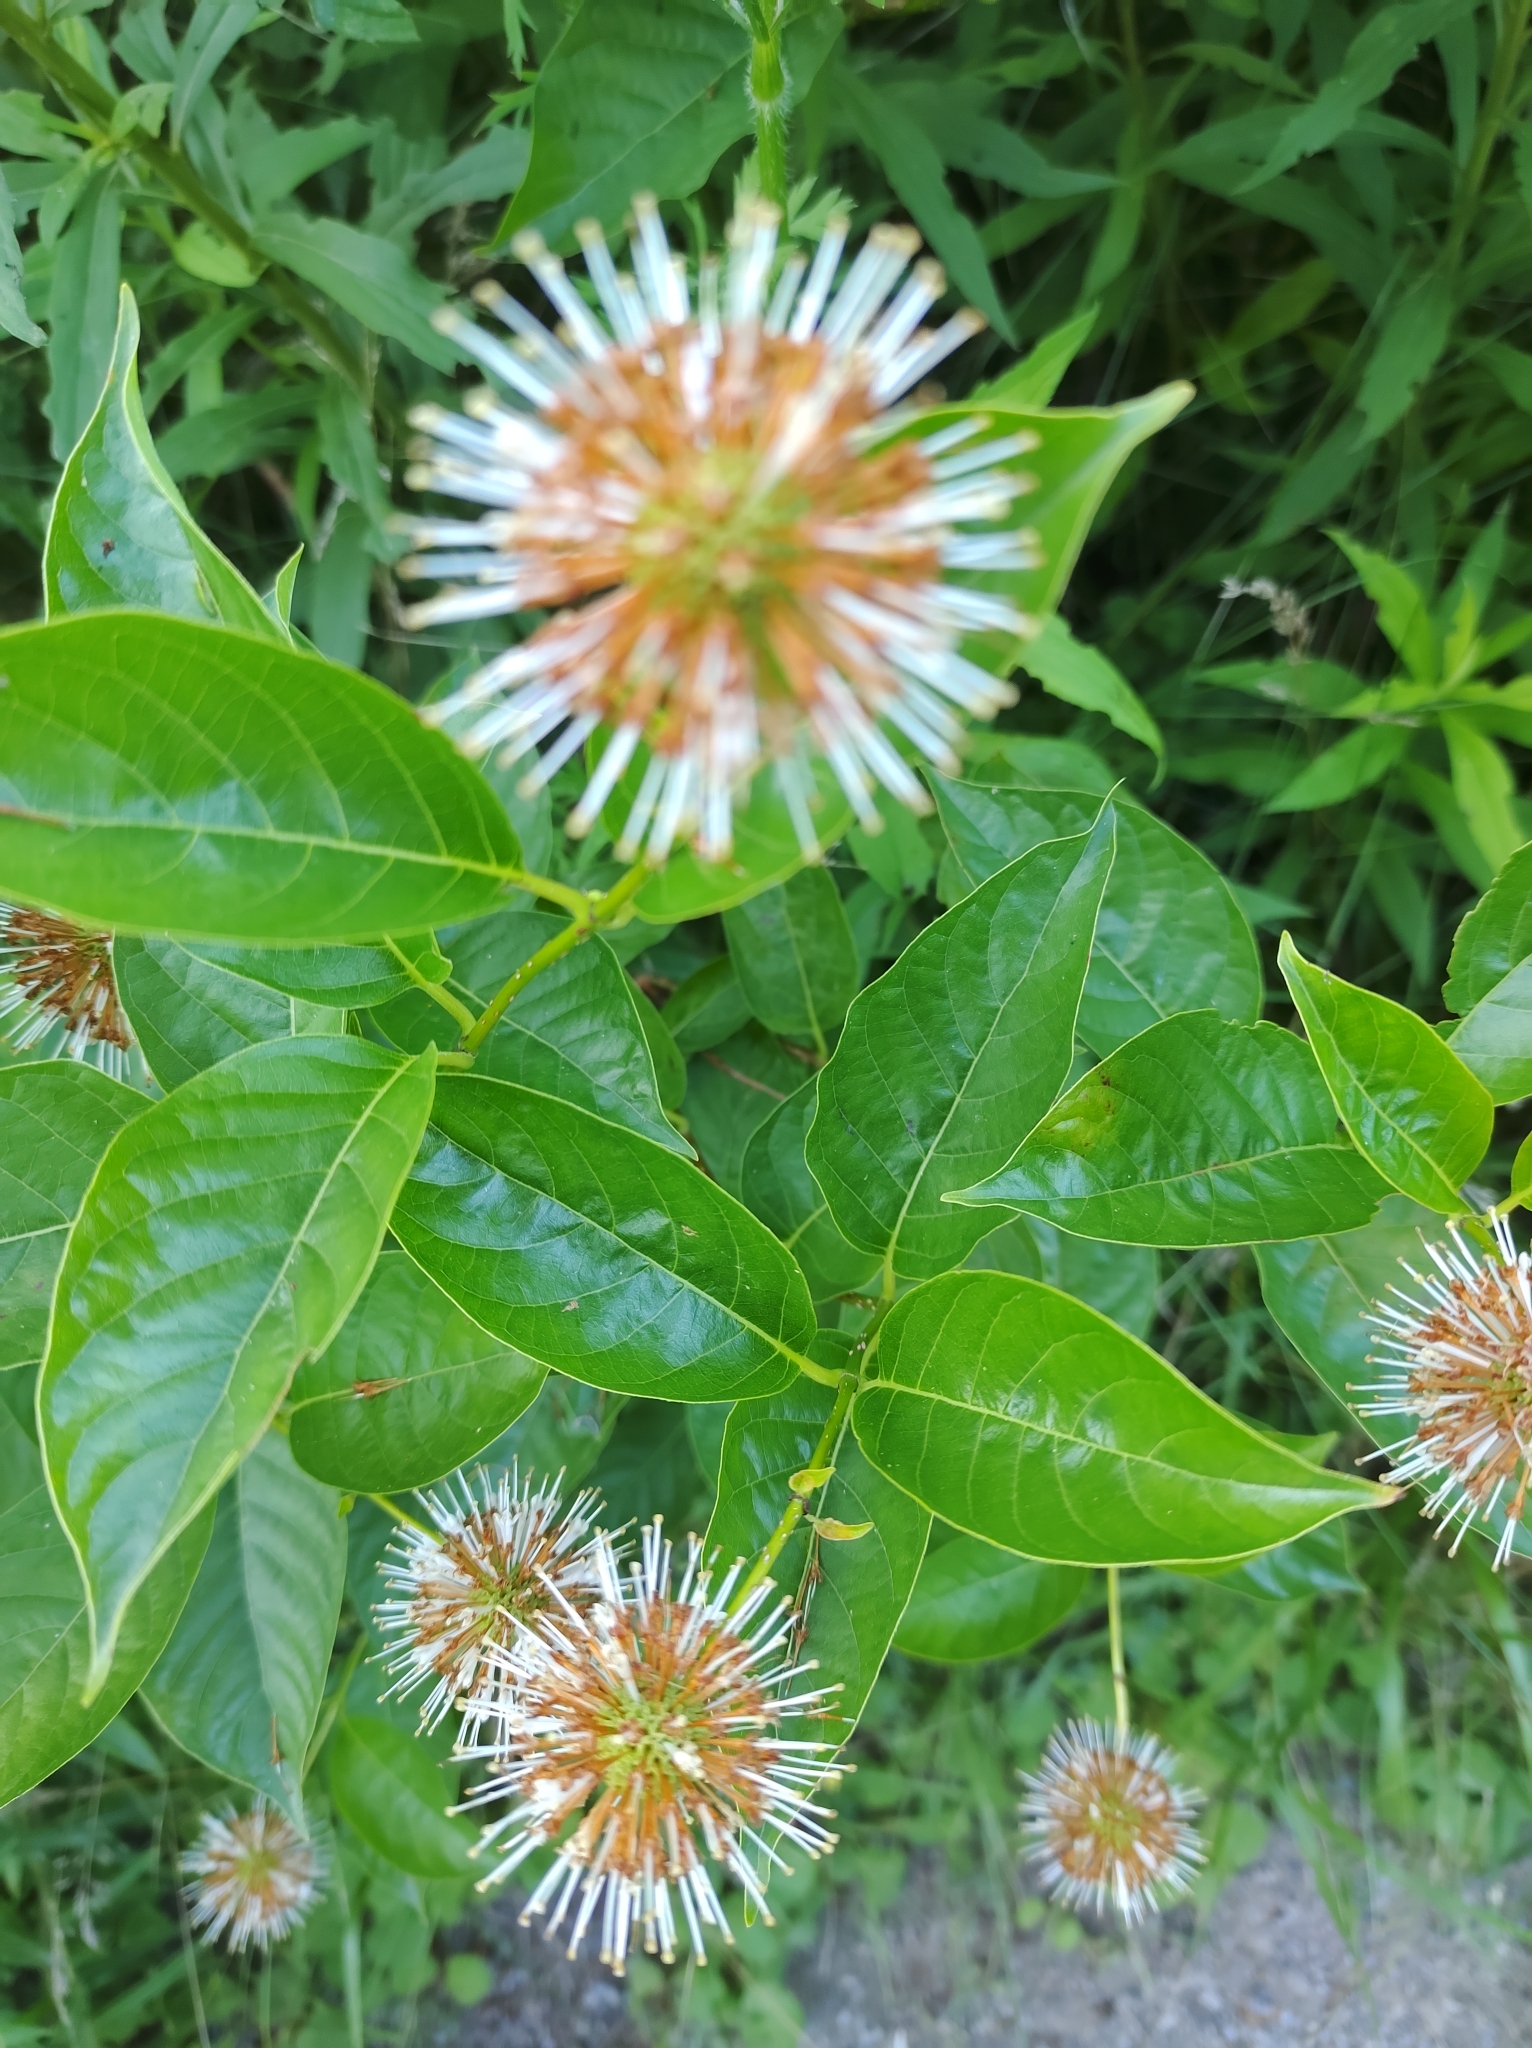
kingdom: Plantae
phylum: Tracheophyta
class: Magnoliopsida
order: Gentianales
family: Rubiaceae
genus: Cephalanthus
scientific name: Cephalanthus occidentalis
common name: Button-willow
